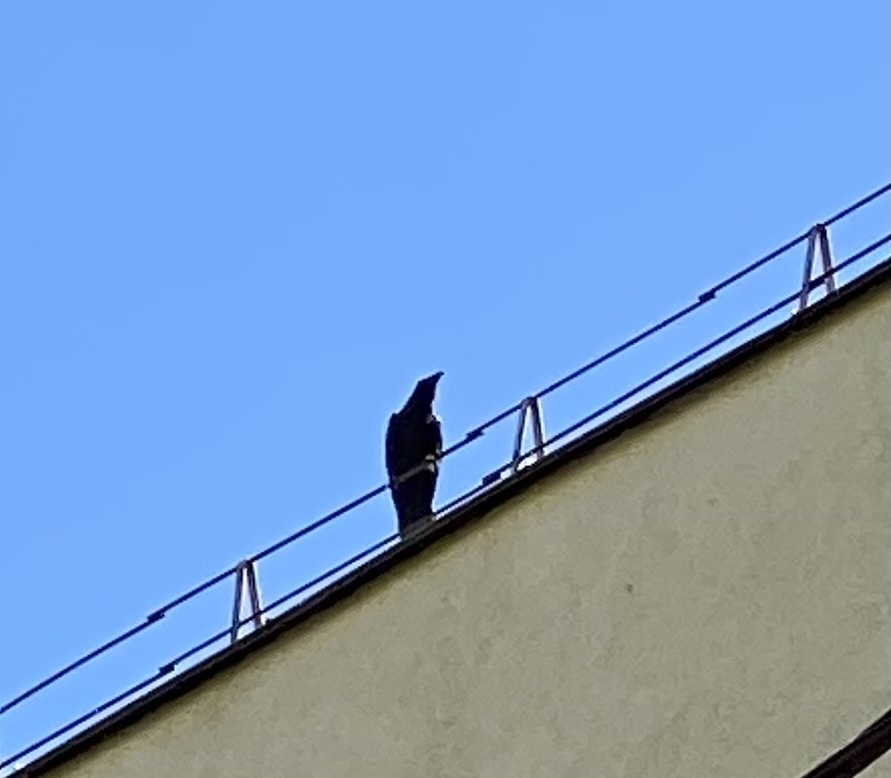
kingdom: Animalia
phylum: Chordata
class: Aves
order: Passeriformes
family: Corvidae
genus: Corvus
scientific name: Corvus corax
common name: Common raven
